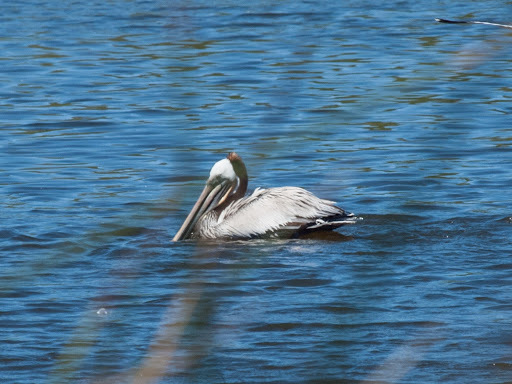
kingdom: Animalia
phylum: Chordata
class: Aves
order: Pelecaniformes
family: Pelecanidae
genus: Pelecanus
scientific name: Pelecanus occidentalis
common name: Brown pelican
